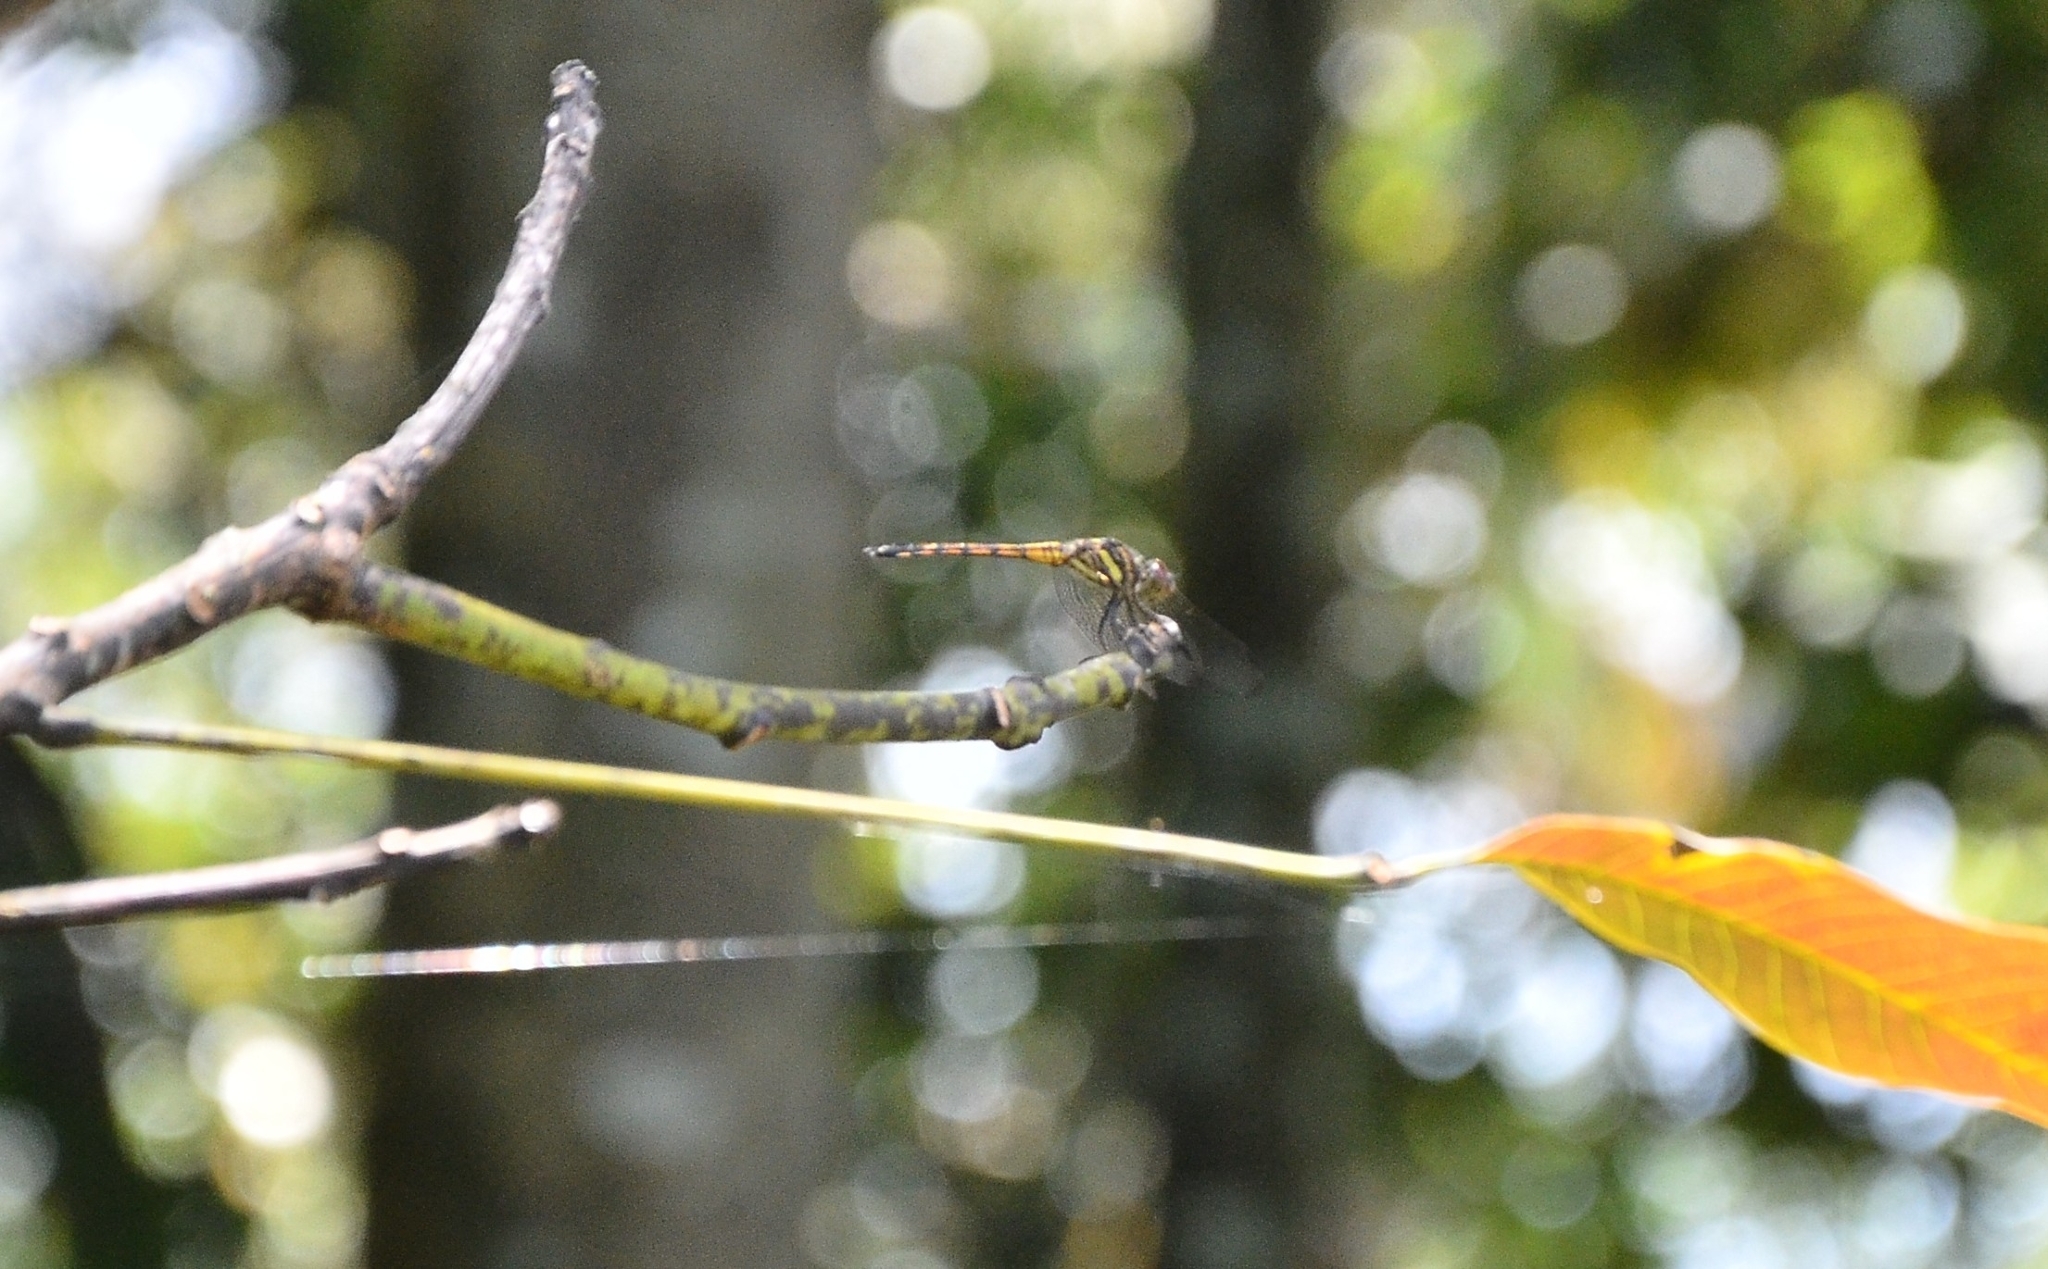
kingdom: Animalia
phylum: Arthropoda
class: Insecta
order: Odonata
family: Libellulidae
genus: Potamarcha
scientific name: Potamarcha congener
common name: Blue chaser
